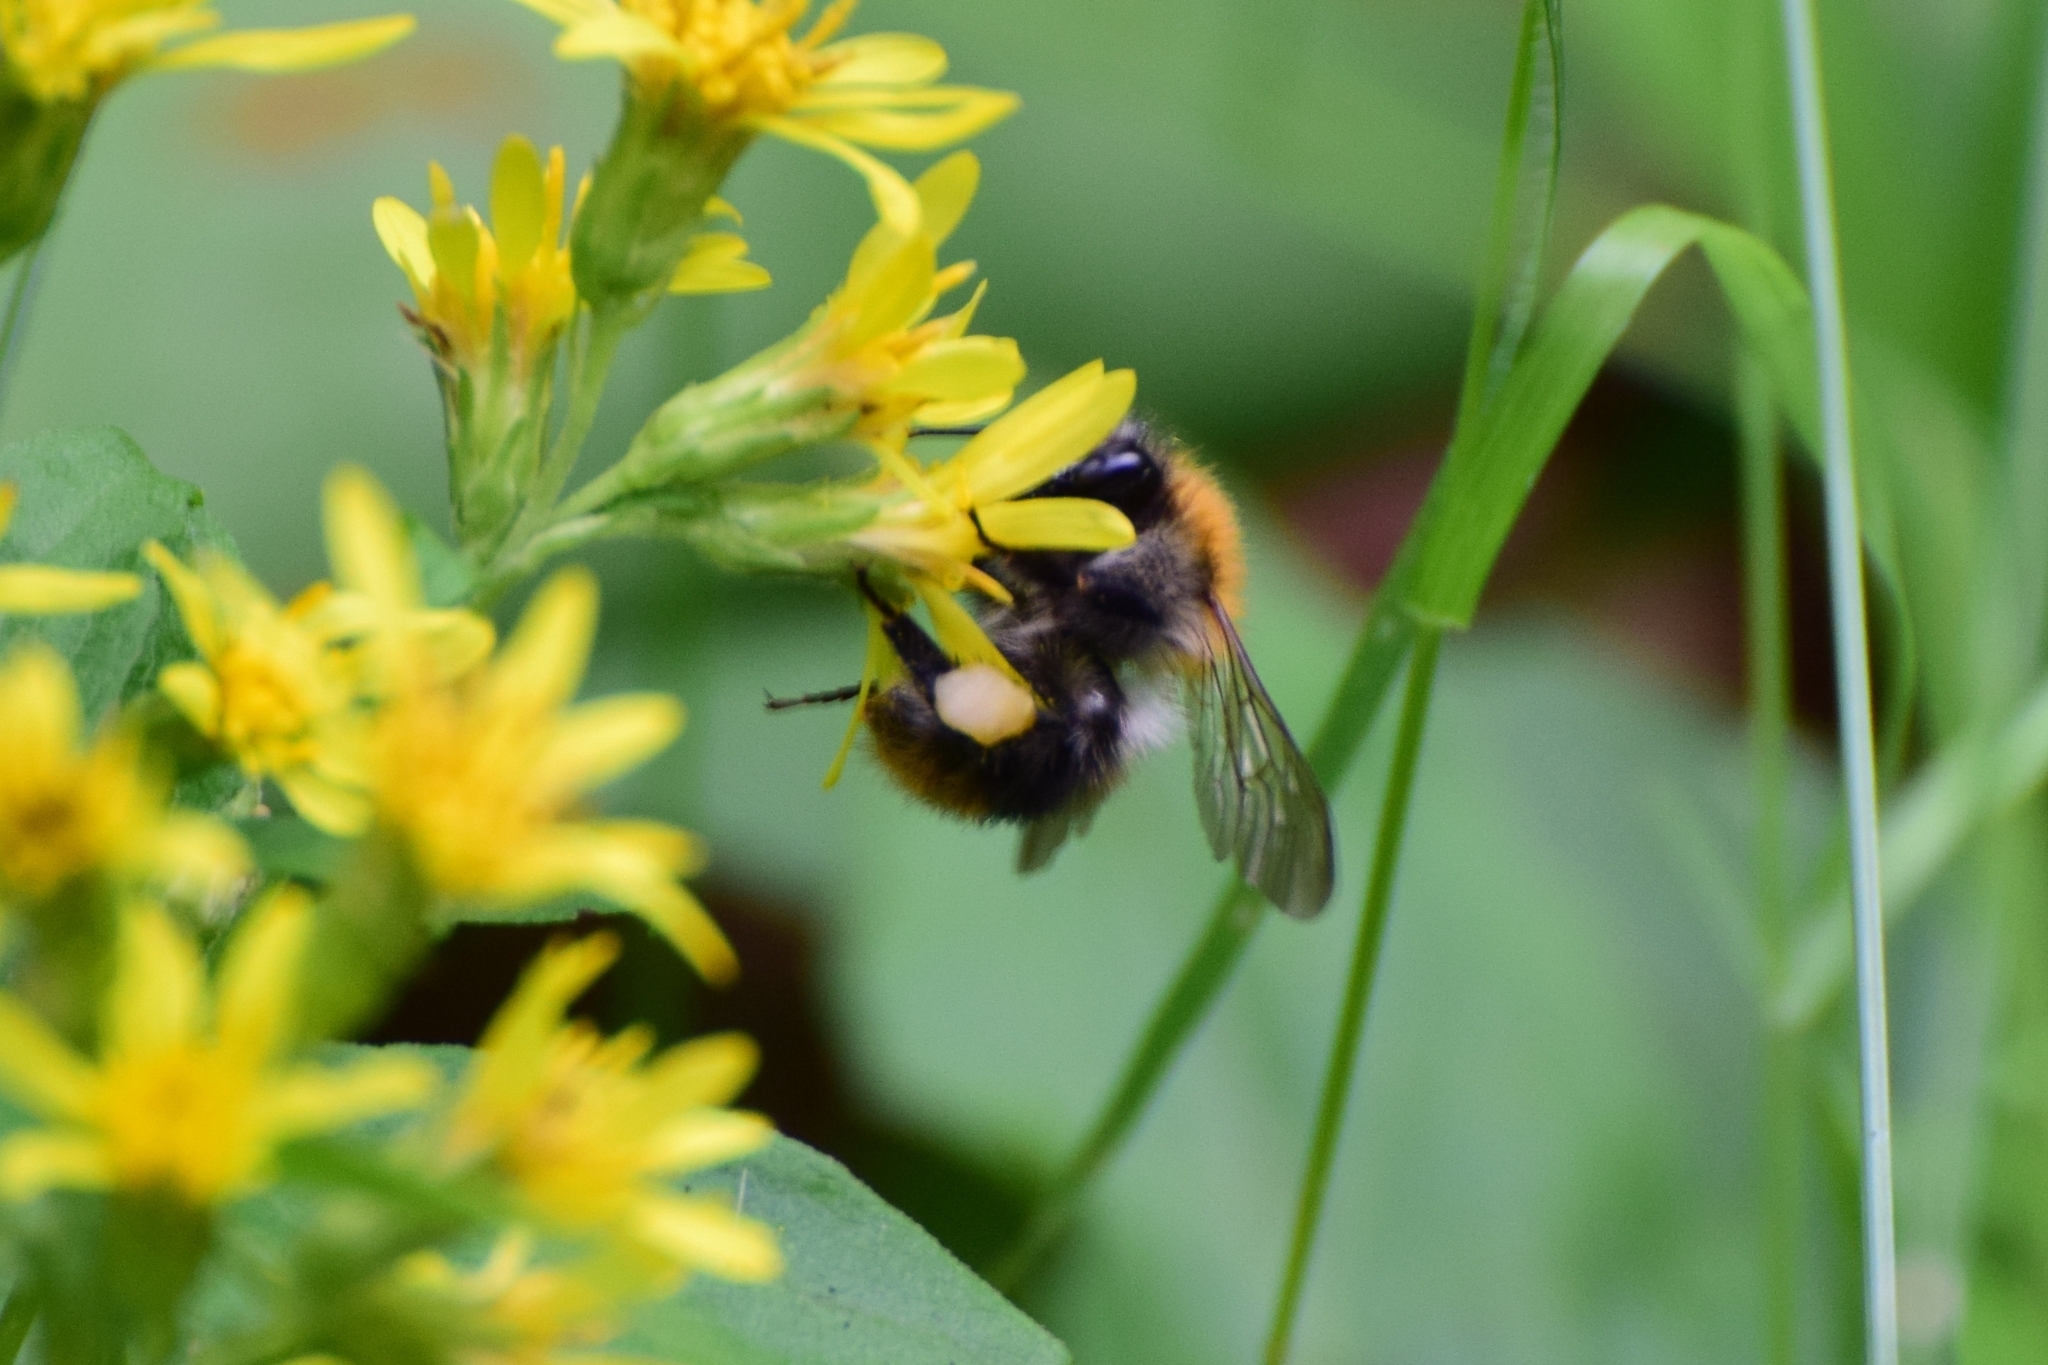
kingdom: Animalia
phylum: Arthropoda
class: Insecta
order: Hymenoptera
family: Apidae
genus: Bombus
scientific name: Bombus pascuorum
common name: Common carder bee
